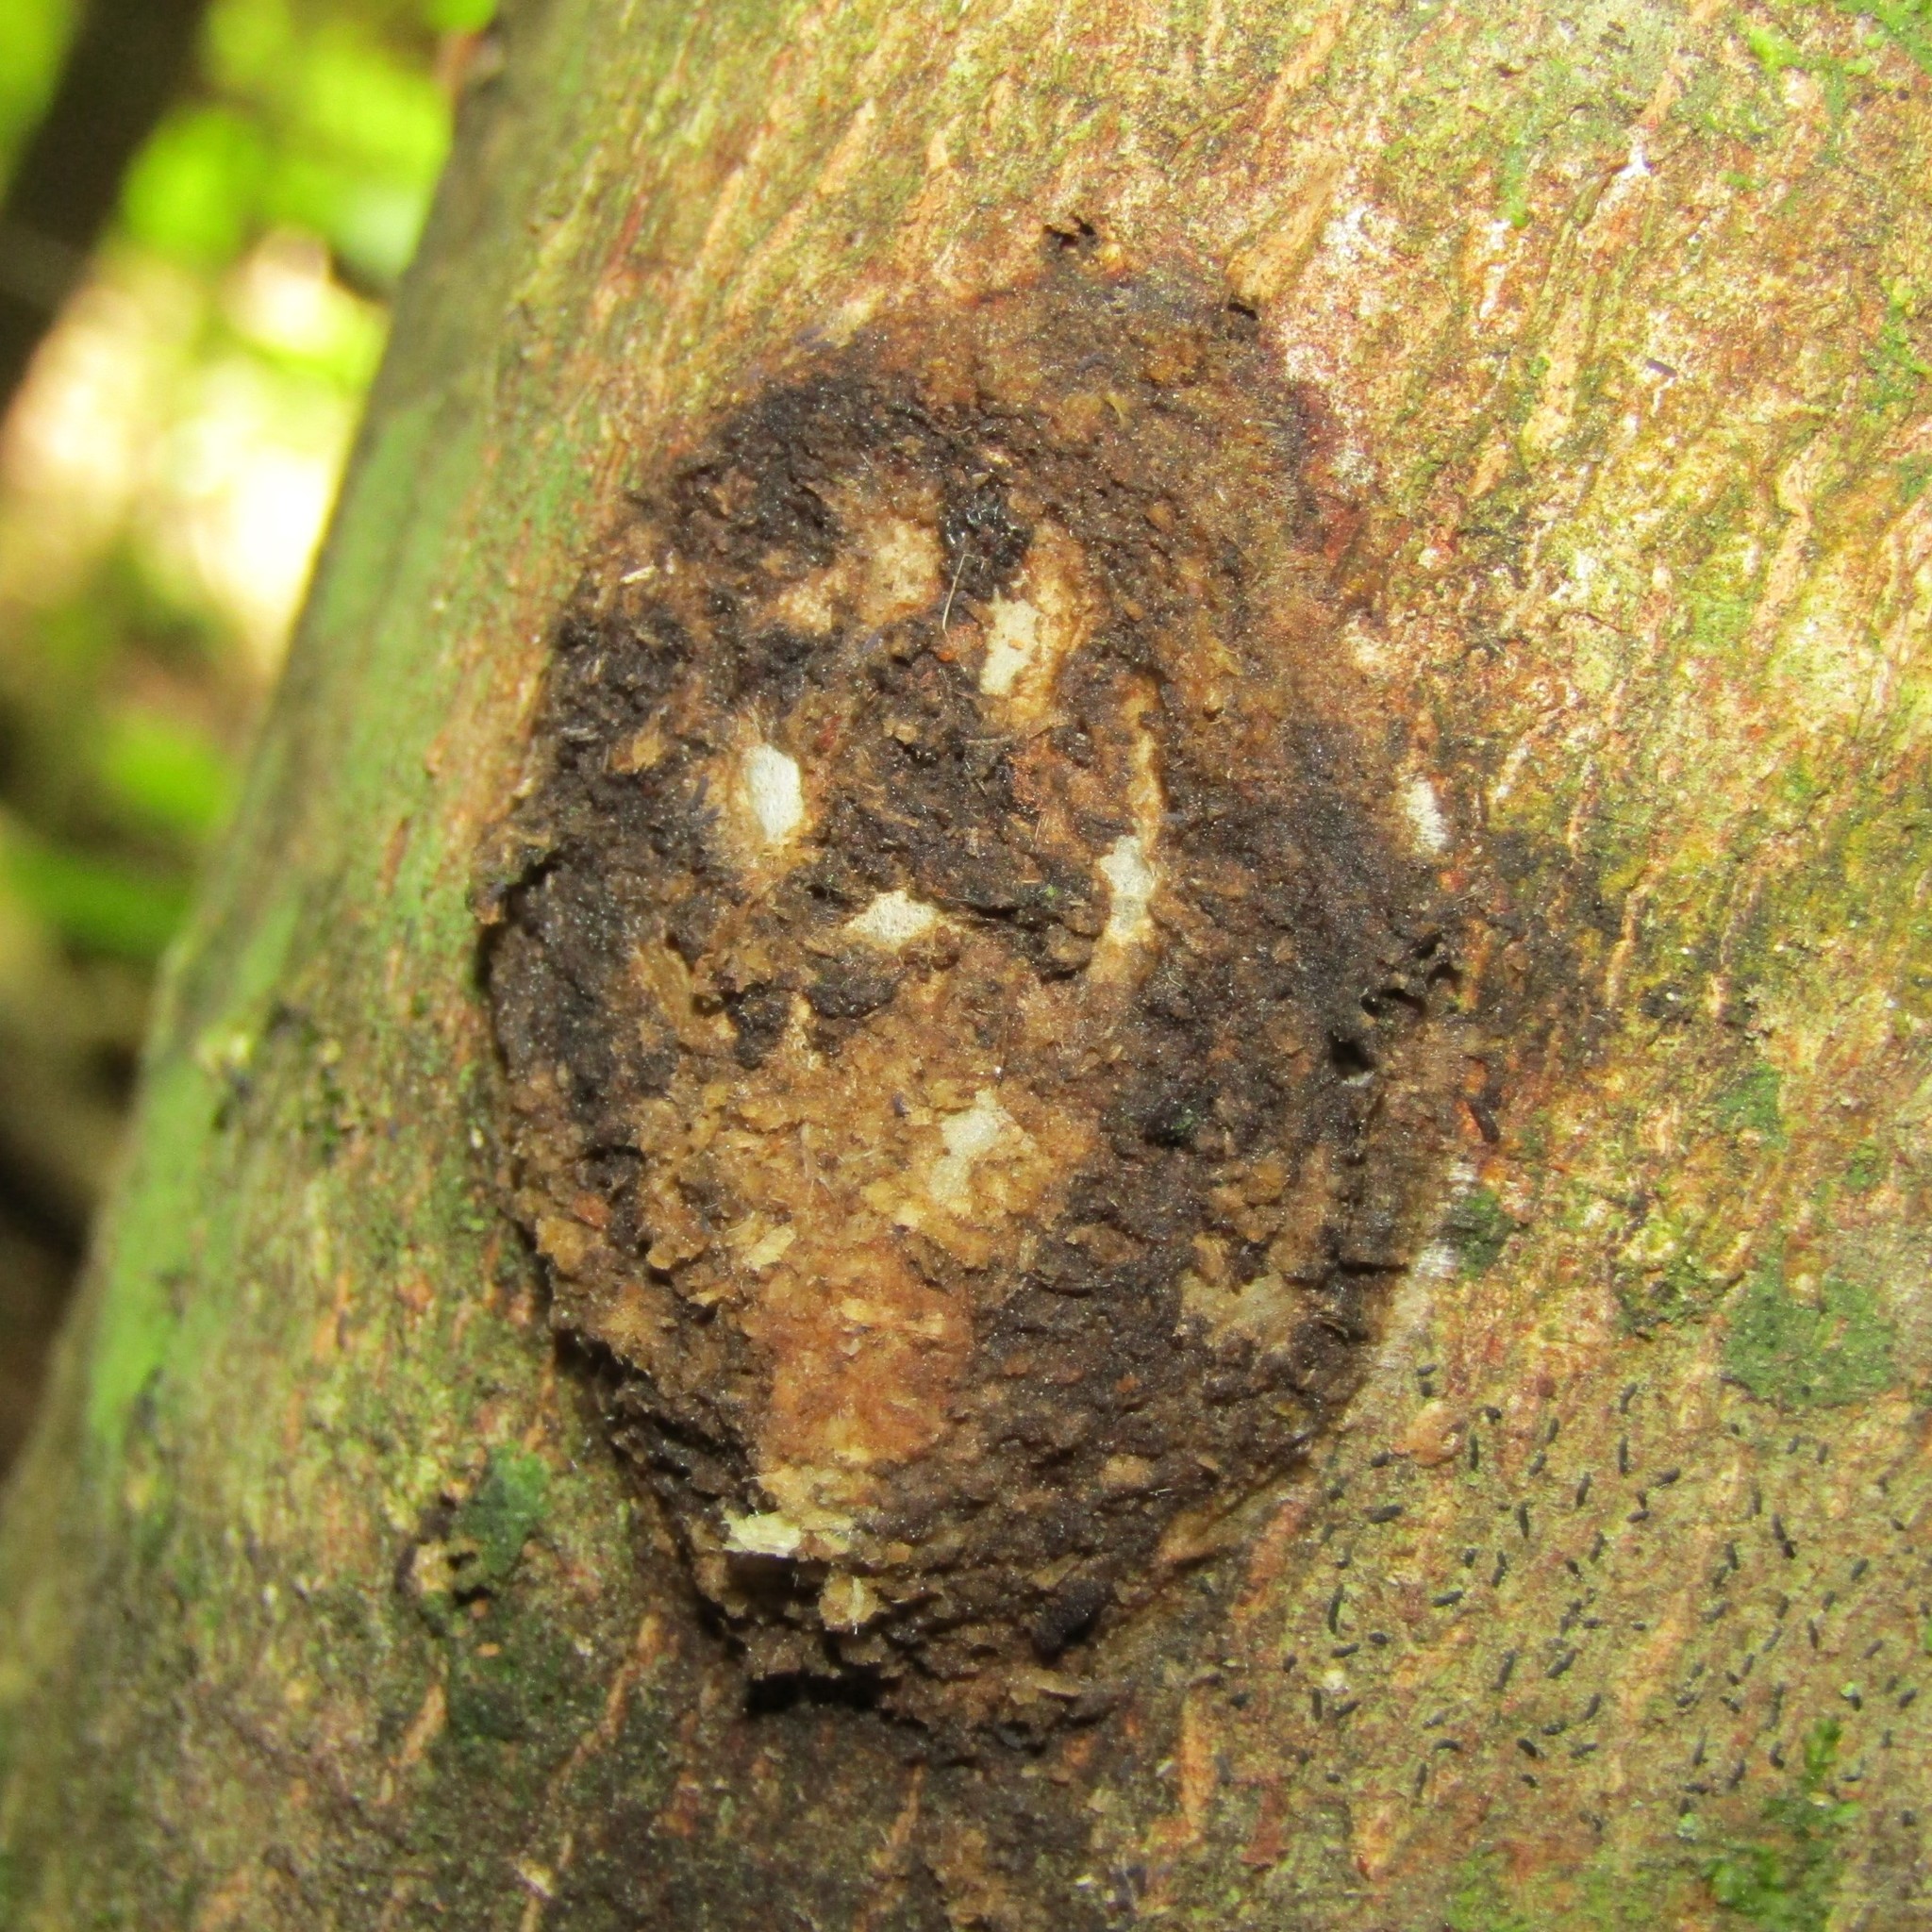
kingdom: Animalia
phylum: Arthropoda
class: Insecta
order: Lepidoptera
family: Hepialidae
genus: Aenetus
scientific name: Aenetus virescens
